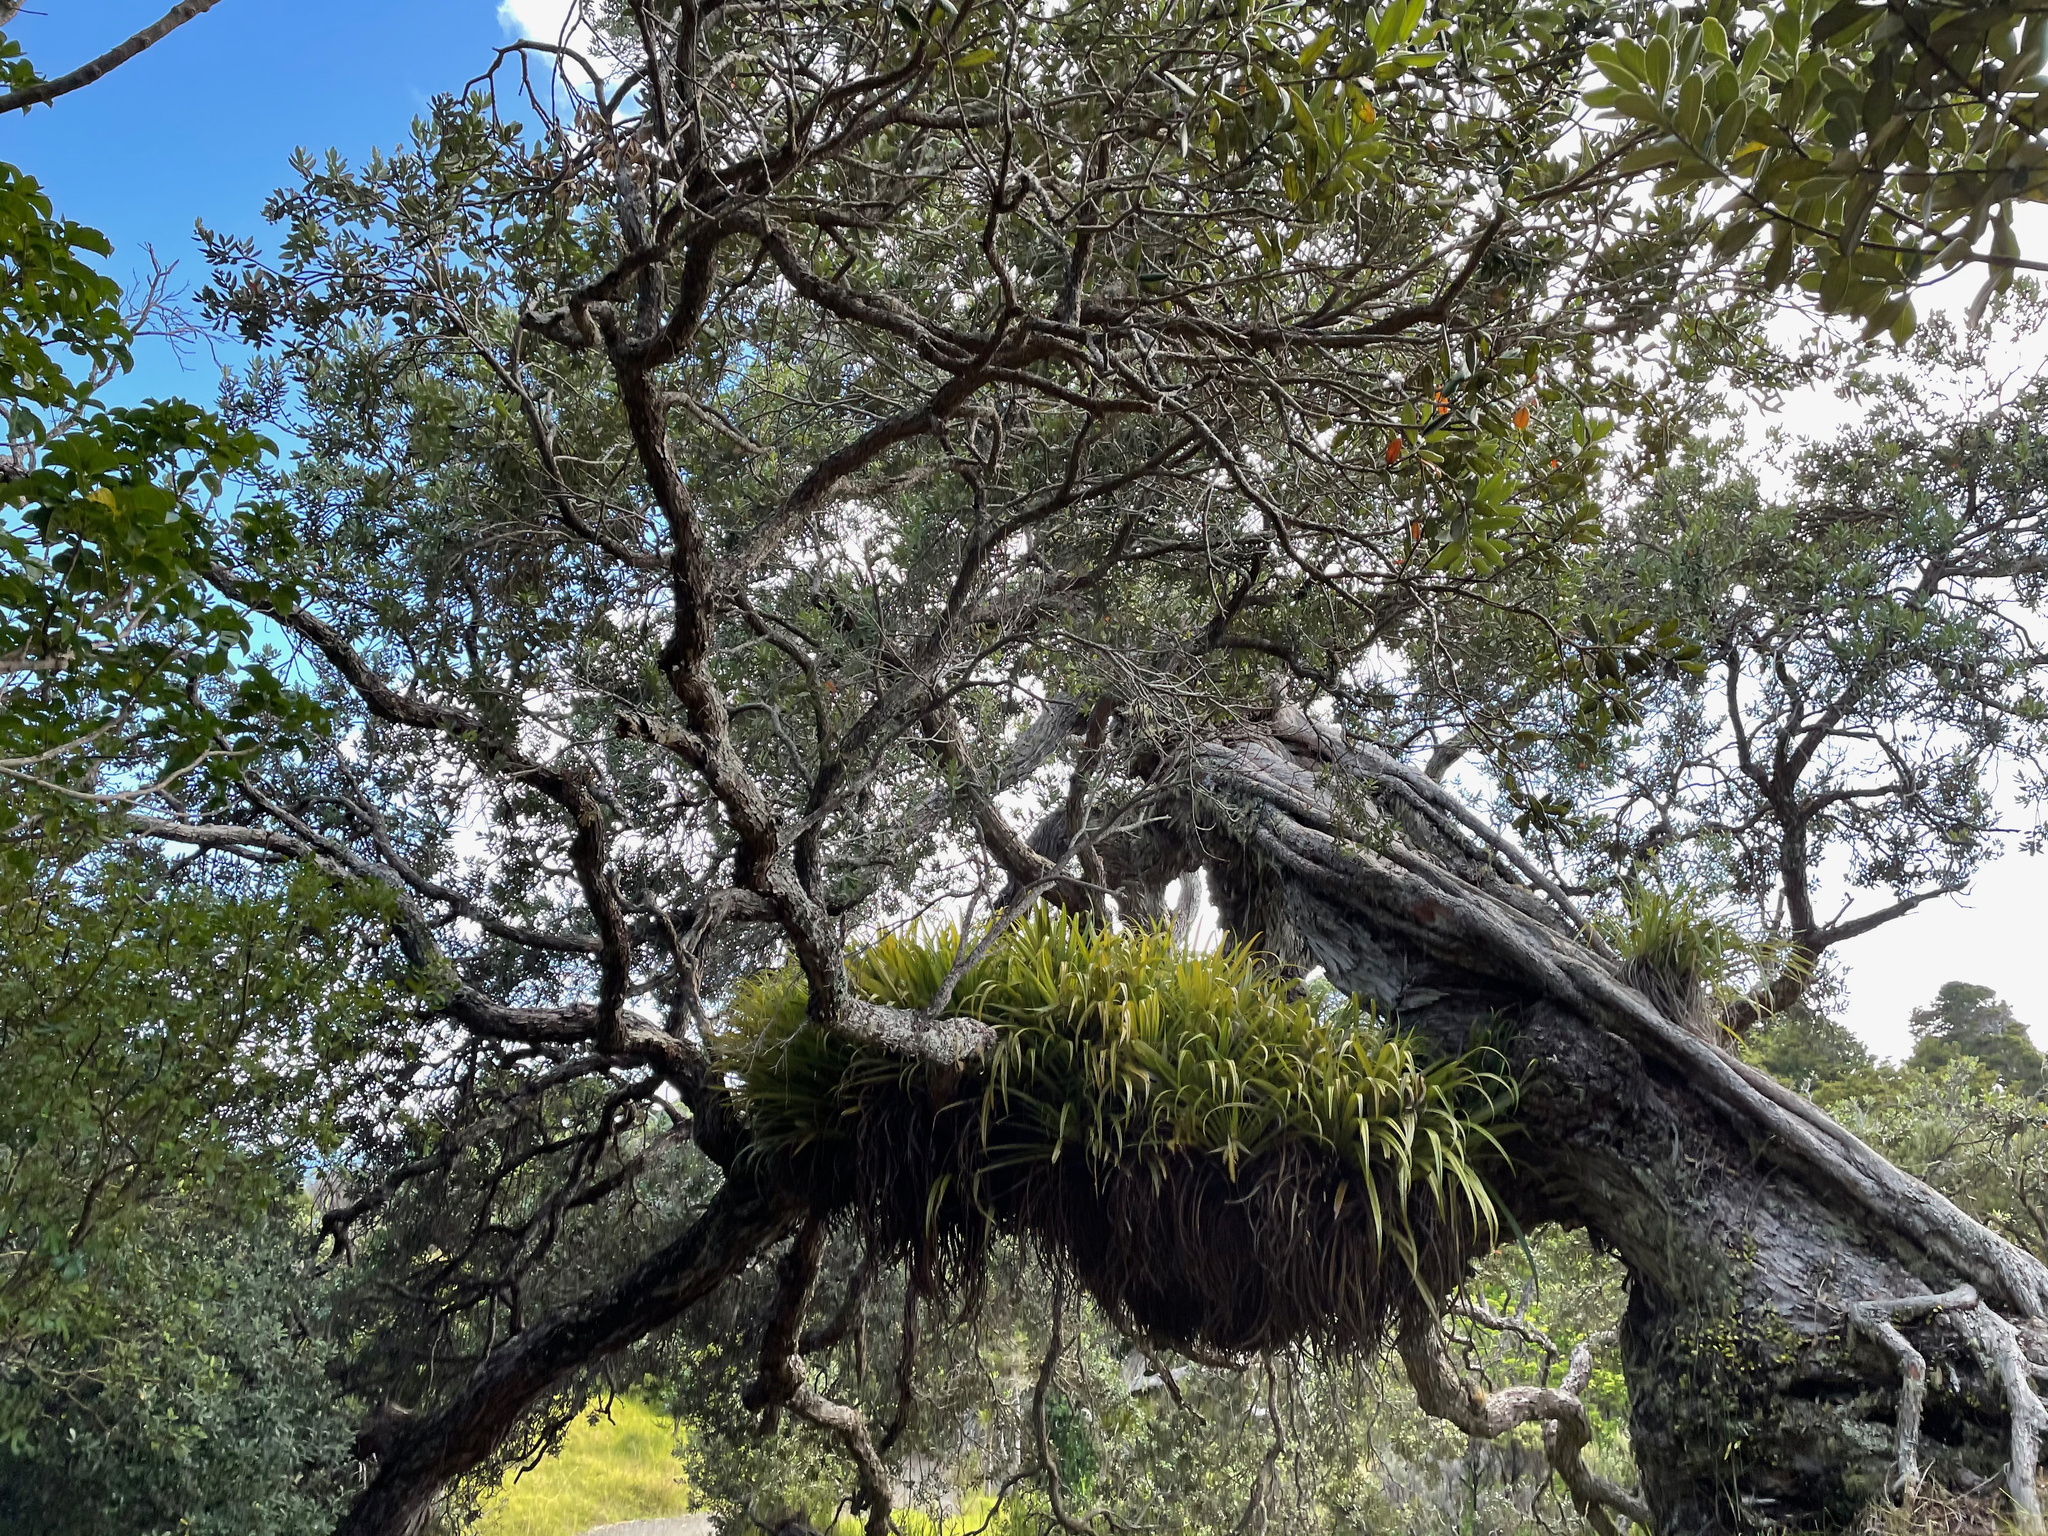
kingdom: Plantae
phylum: Tracheophyta
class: Liliopsida
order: Asparagales
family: Asteliaceae
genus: Astelia
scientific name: Astelia hastata
